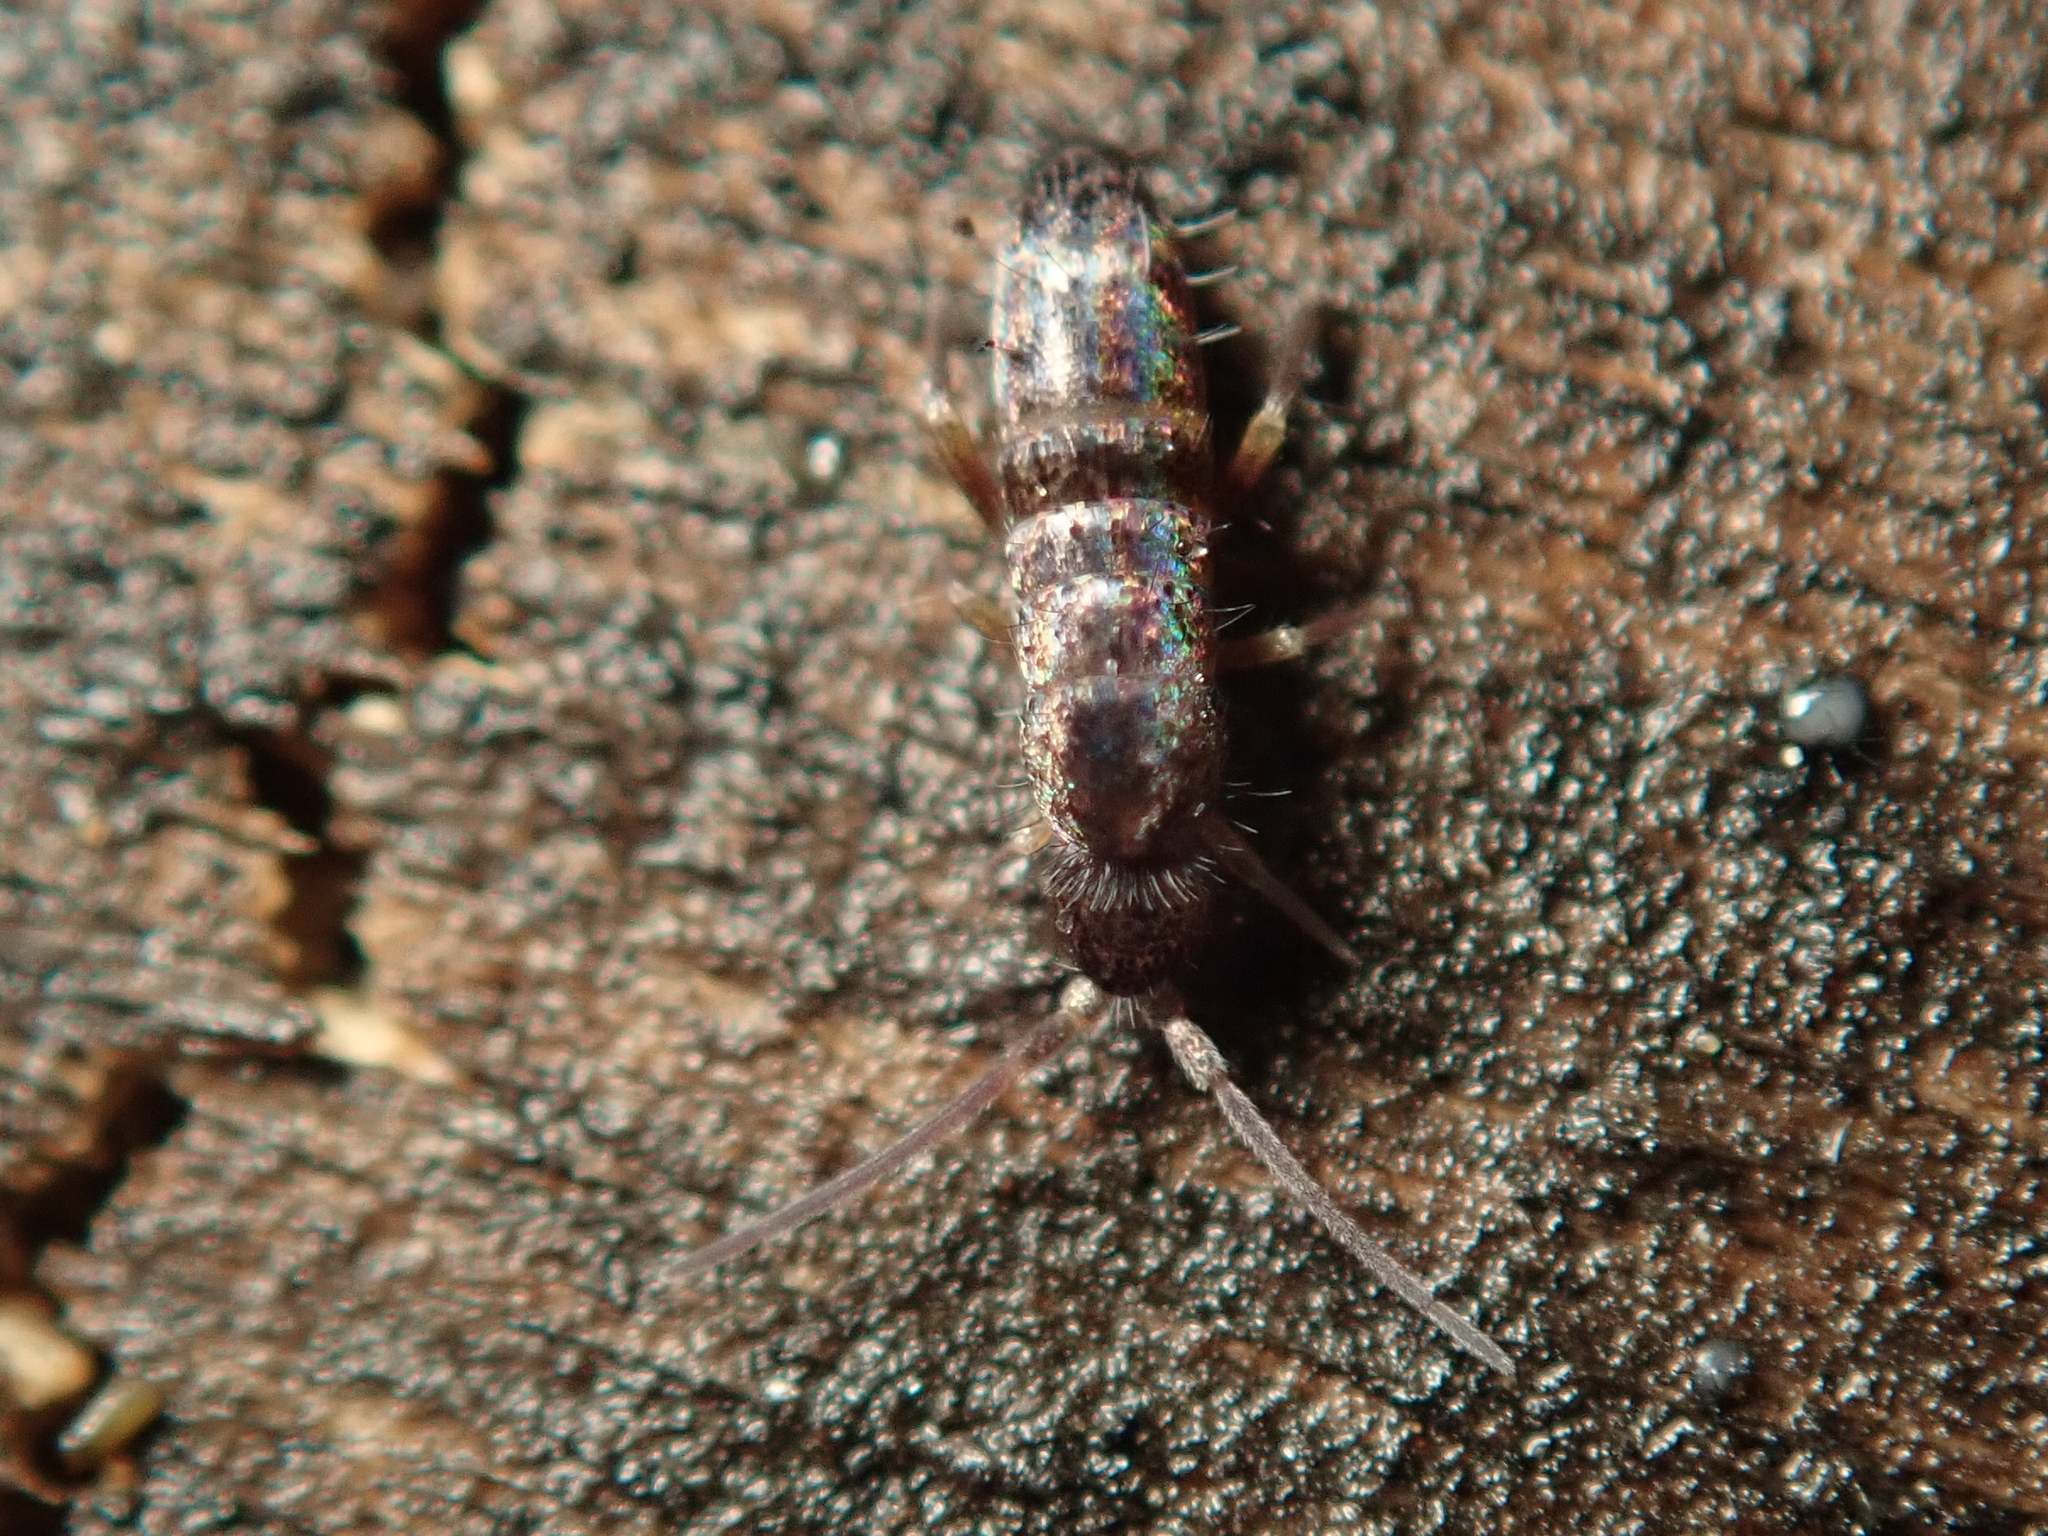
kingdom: Animalia
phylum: Arthropoda
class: Collembola
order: Entomobryomorpha
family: Tomoceridae
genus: Tomocerus
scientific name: Tomocerus vulgaris
